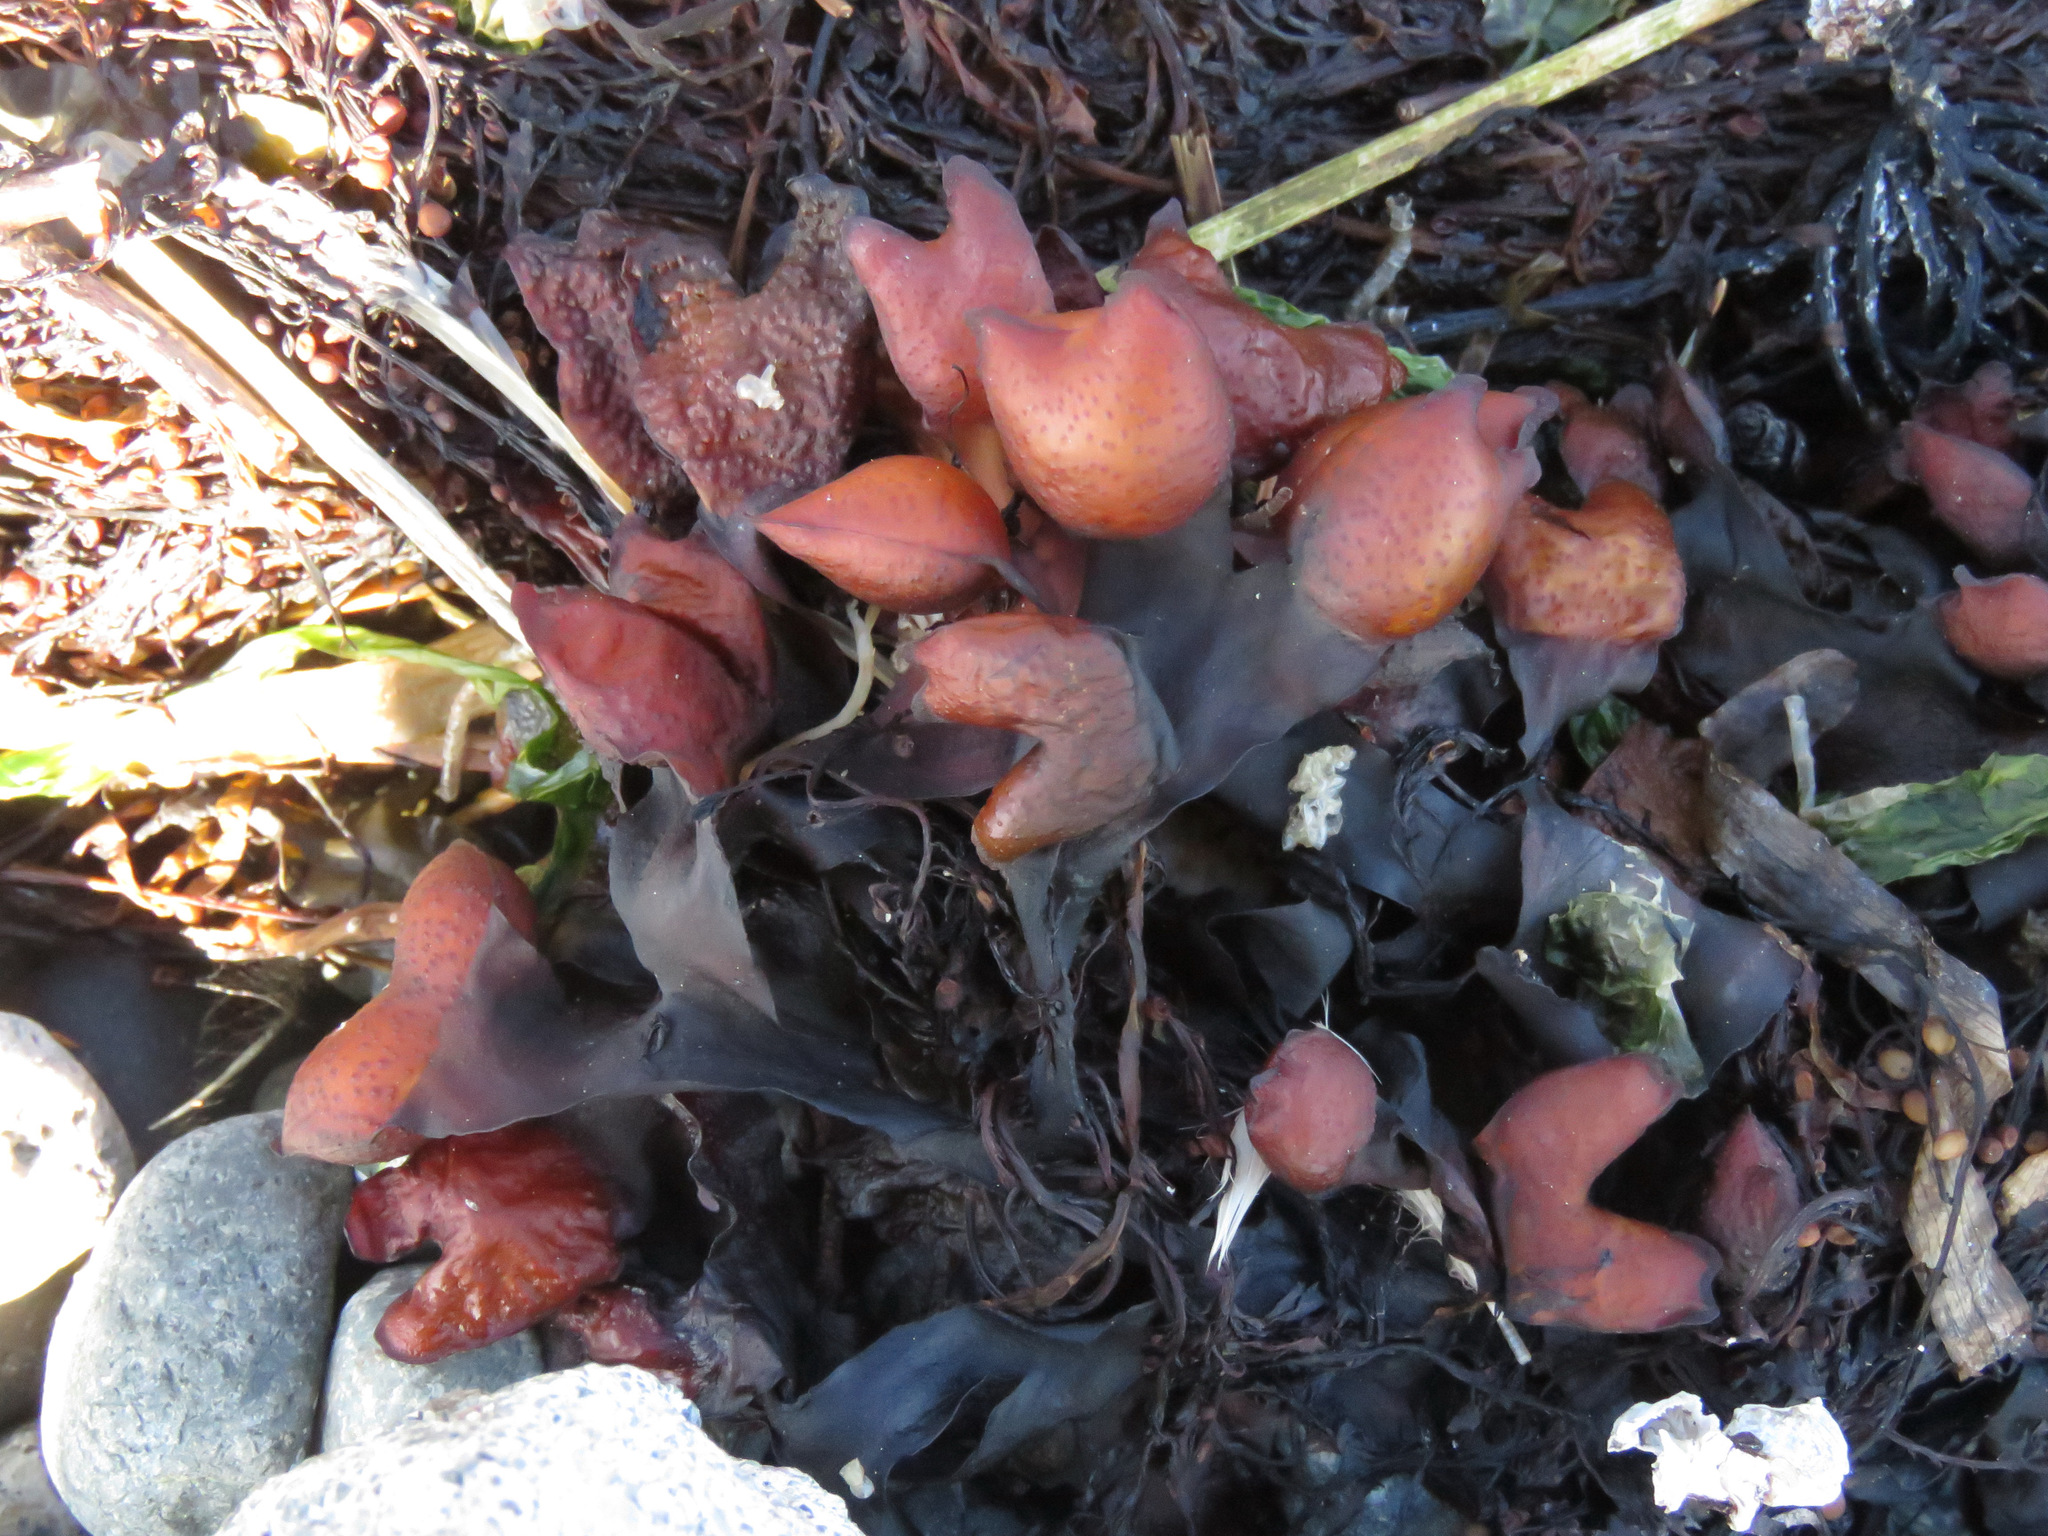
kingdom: Chromista
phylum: Ochrophyta
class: Phaeophyceae
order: Fucales
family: Fucaceae
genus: Fucus
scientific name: Fucus distichus
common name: Rockweed
